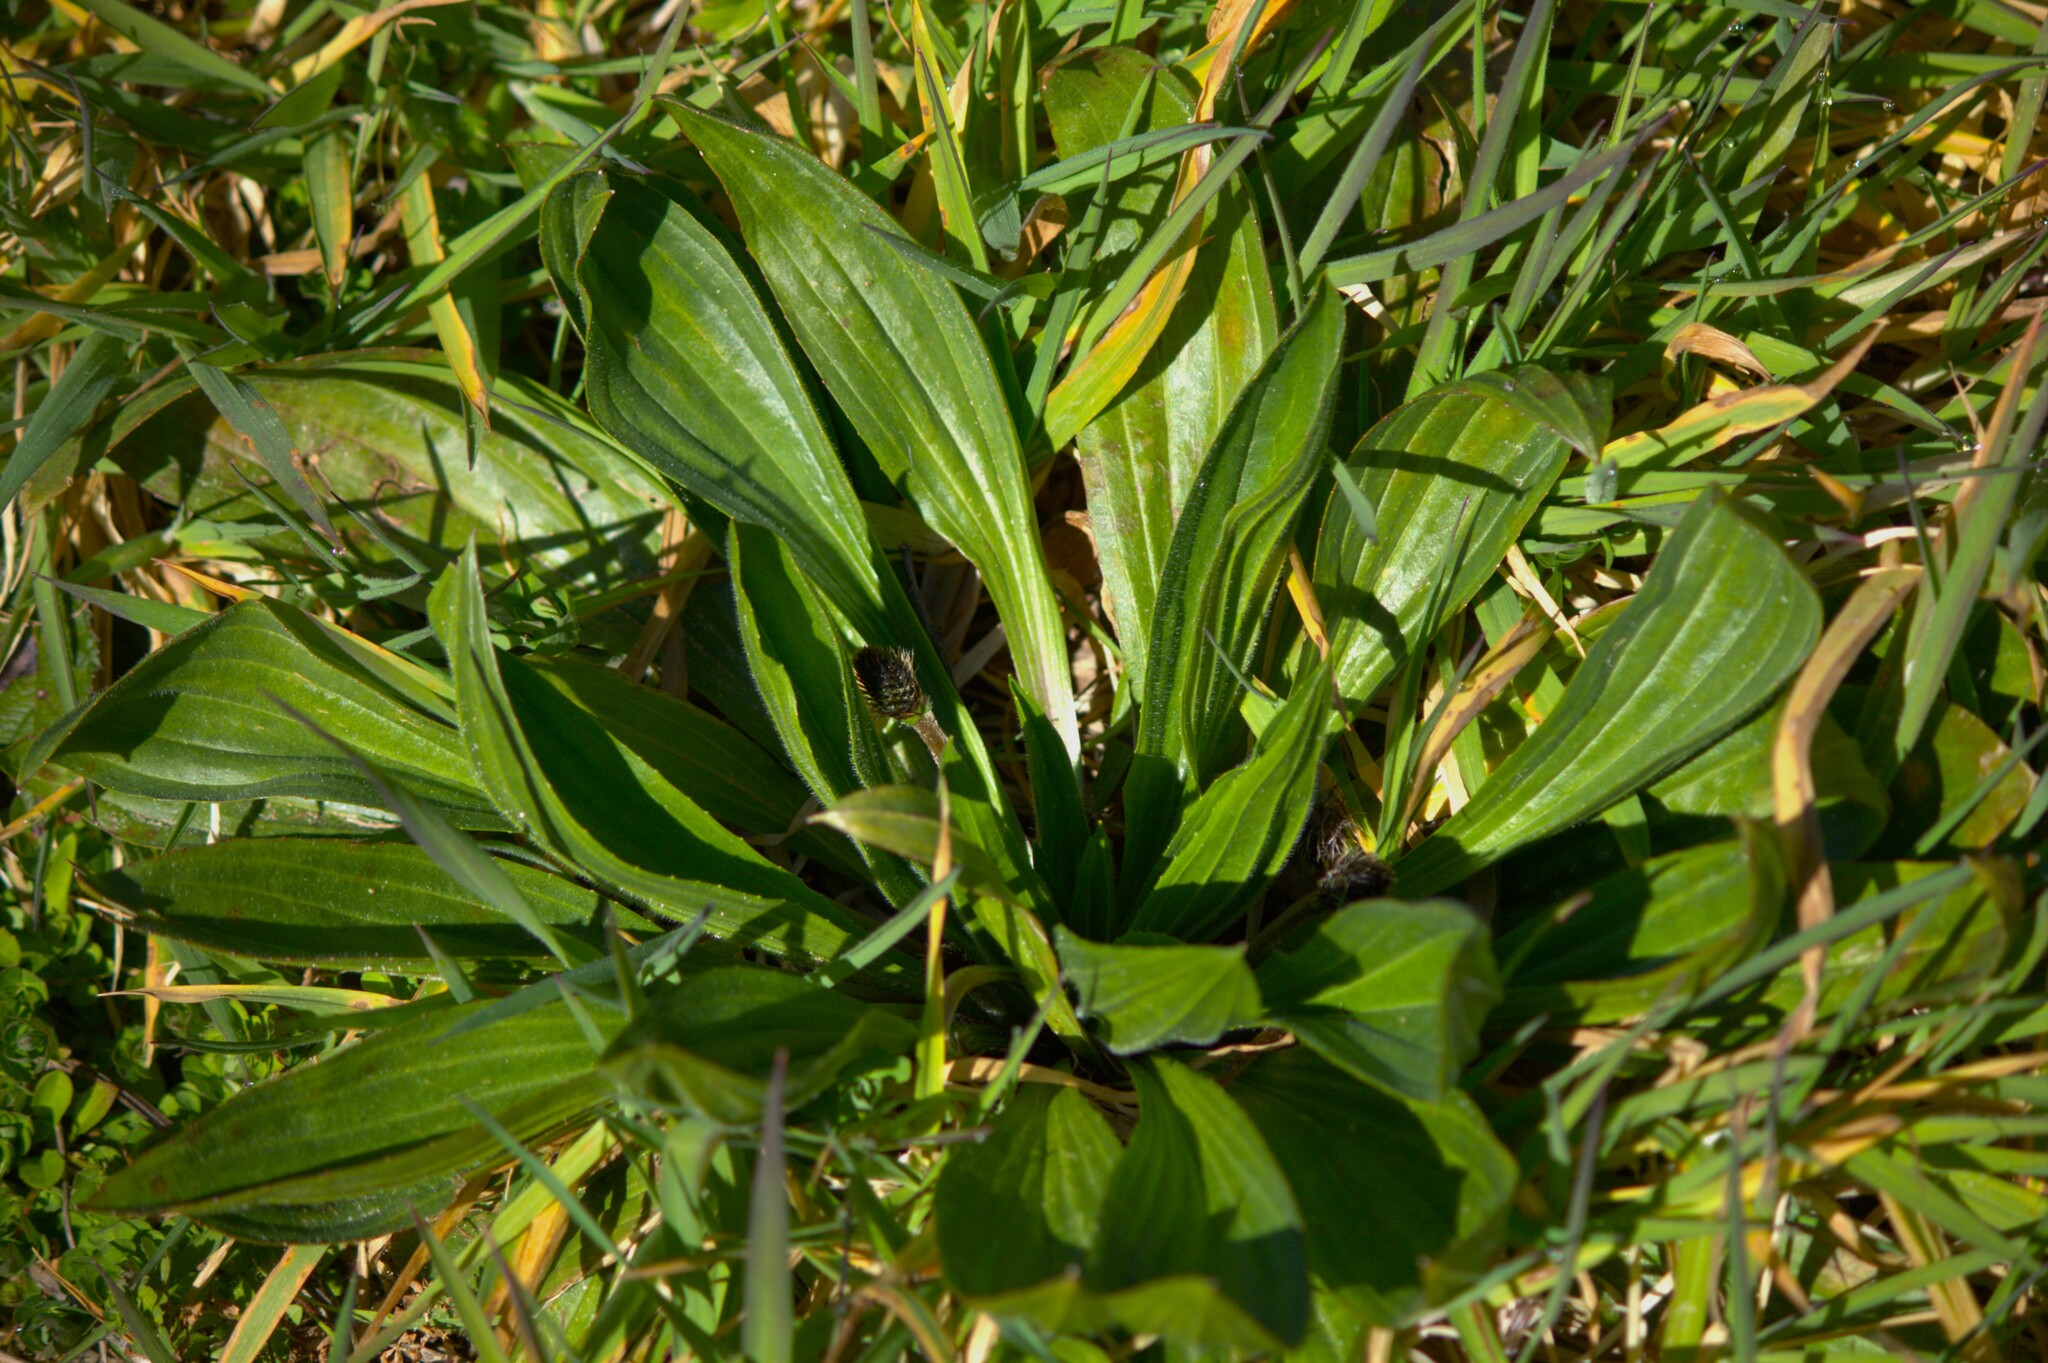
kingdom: Plantae
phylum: Tracheophyta
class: Magnoliopsida
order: Lamiales
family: Plantaginaceae
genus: Plantago
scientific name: Plantago lanceolata
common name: Ribwort plantain
